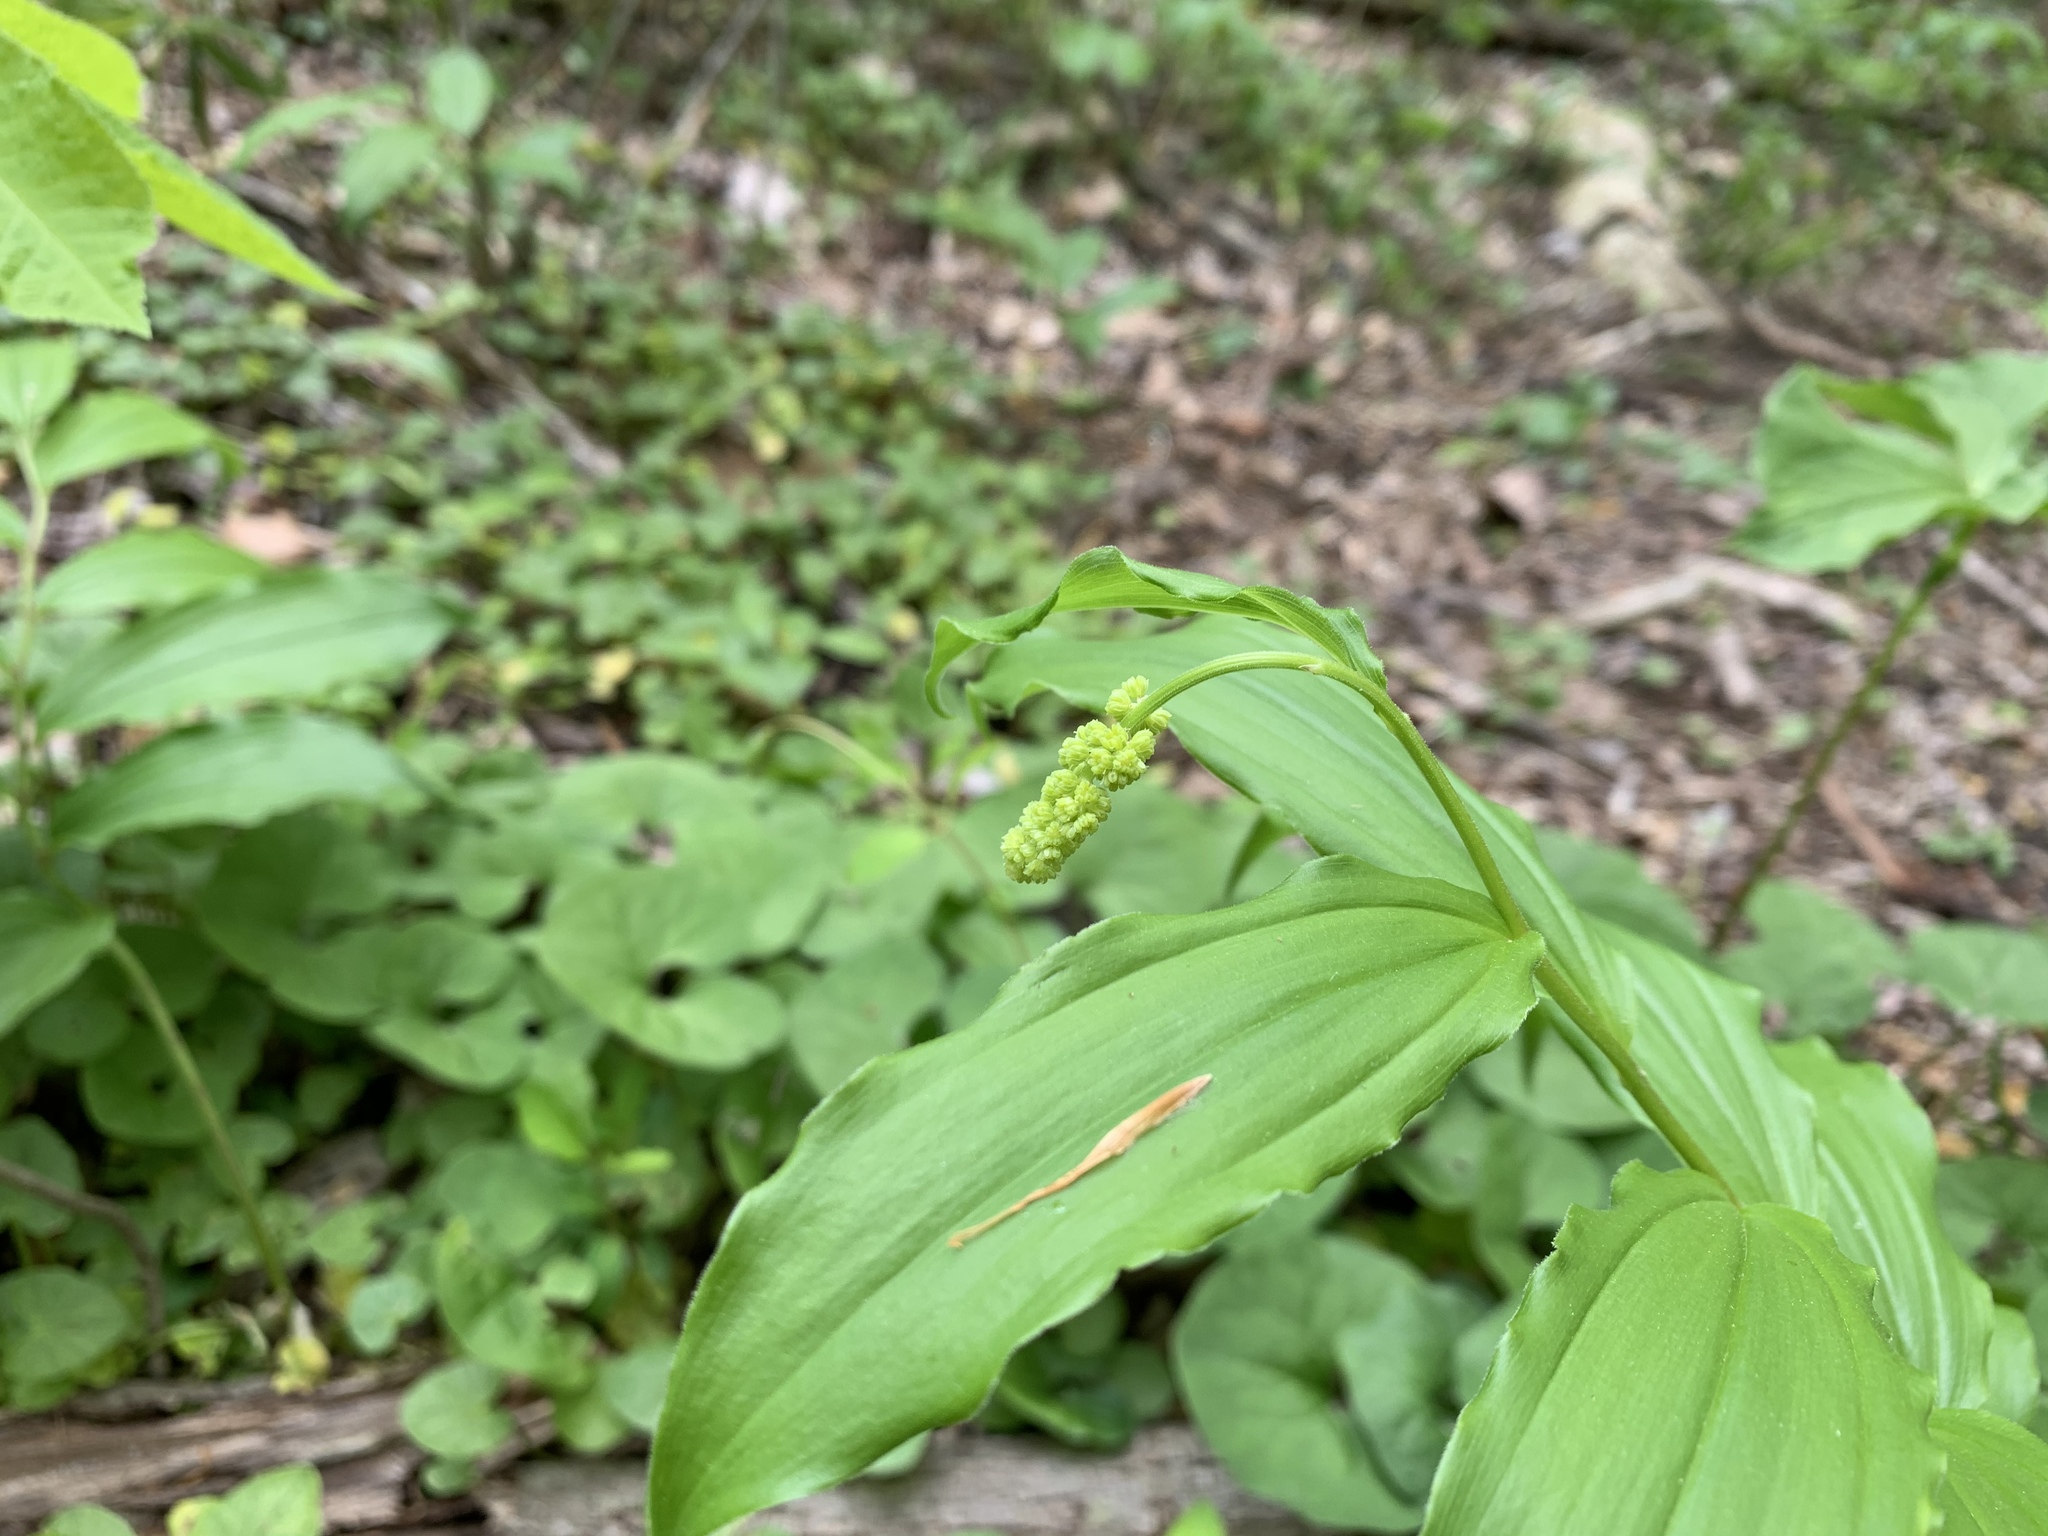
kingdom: Plantae
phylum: Tracheophyta
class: Liliopsida
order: Asparagales
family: Asparagaceae
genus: Maianthemum
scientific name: Maianthemum racemosum
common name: False spikenard
